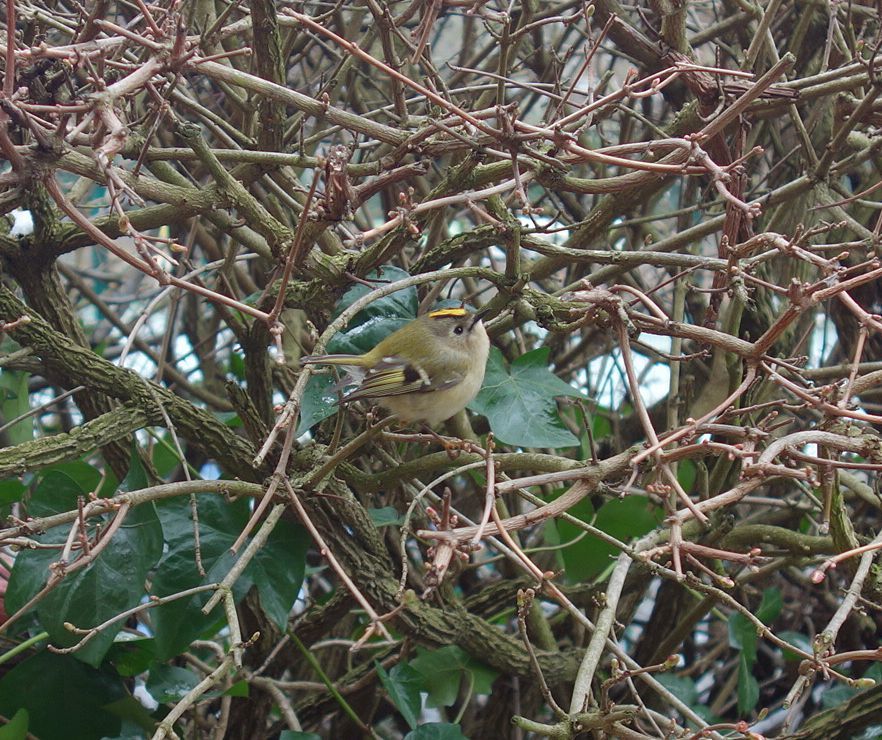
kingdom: Animalia
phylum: Chordata
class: Aves
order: Passeriformes
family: Regulidae
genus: Regulus
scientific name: Regulus regulus
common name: Goldcrest
